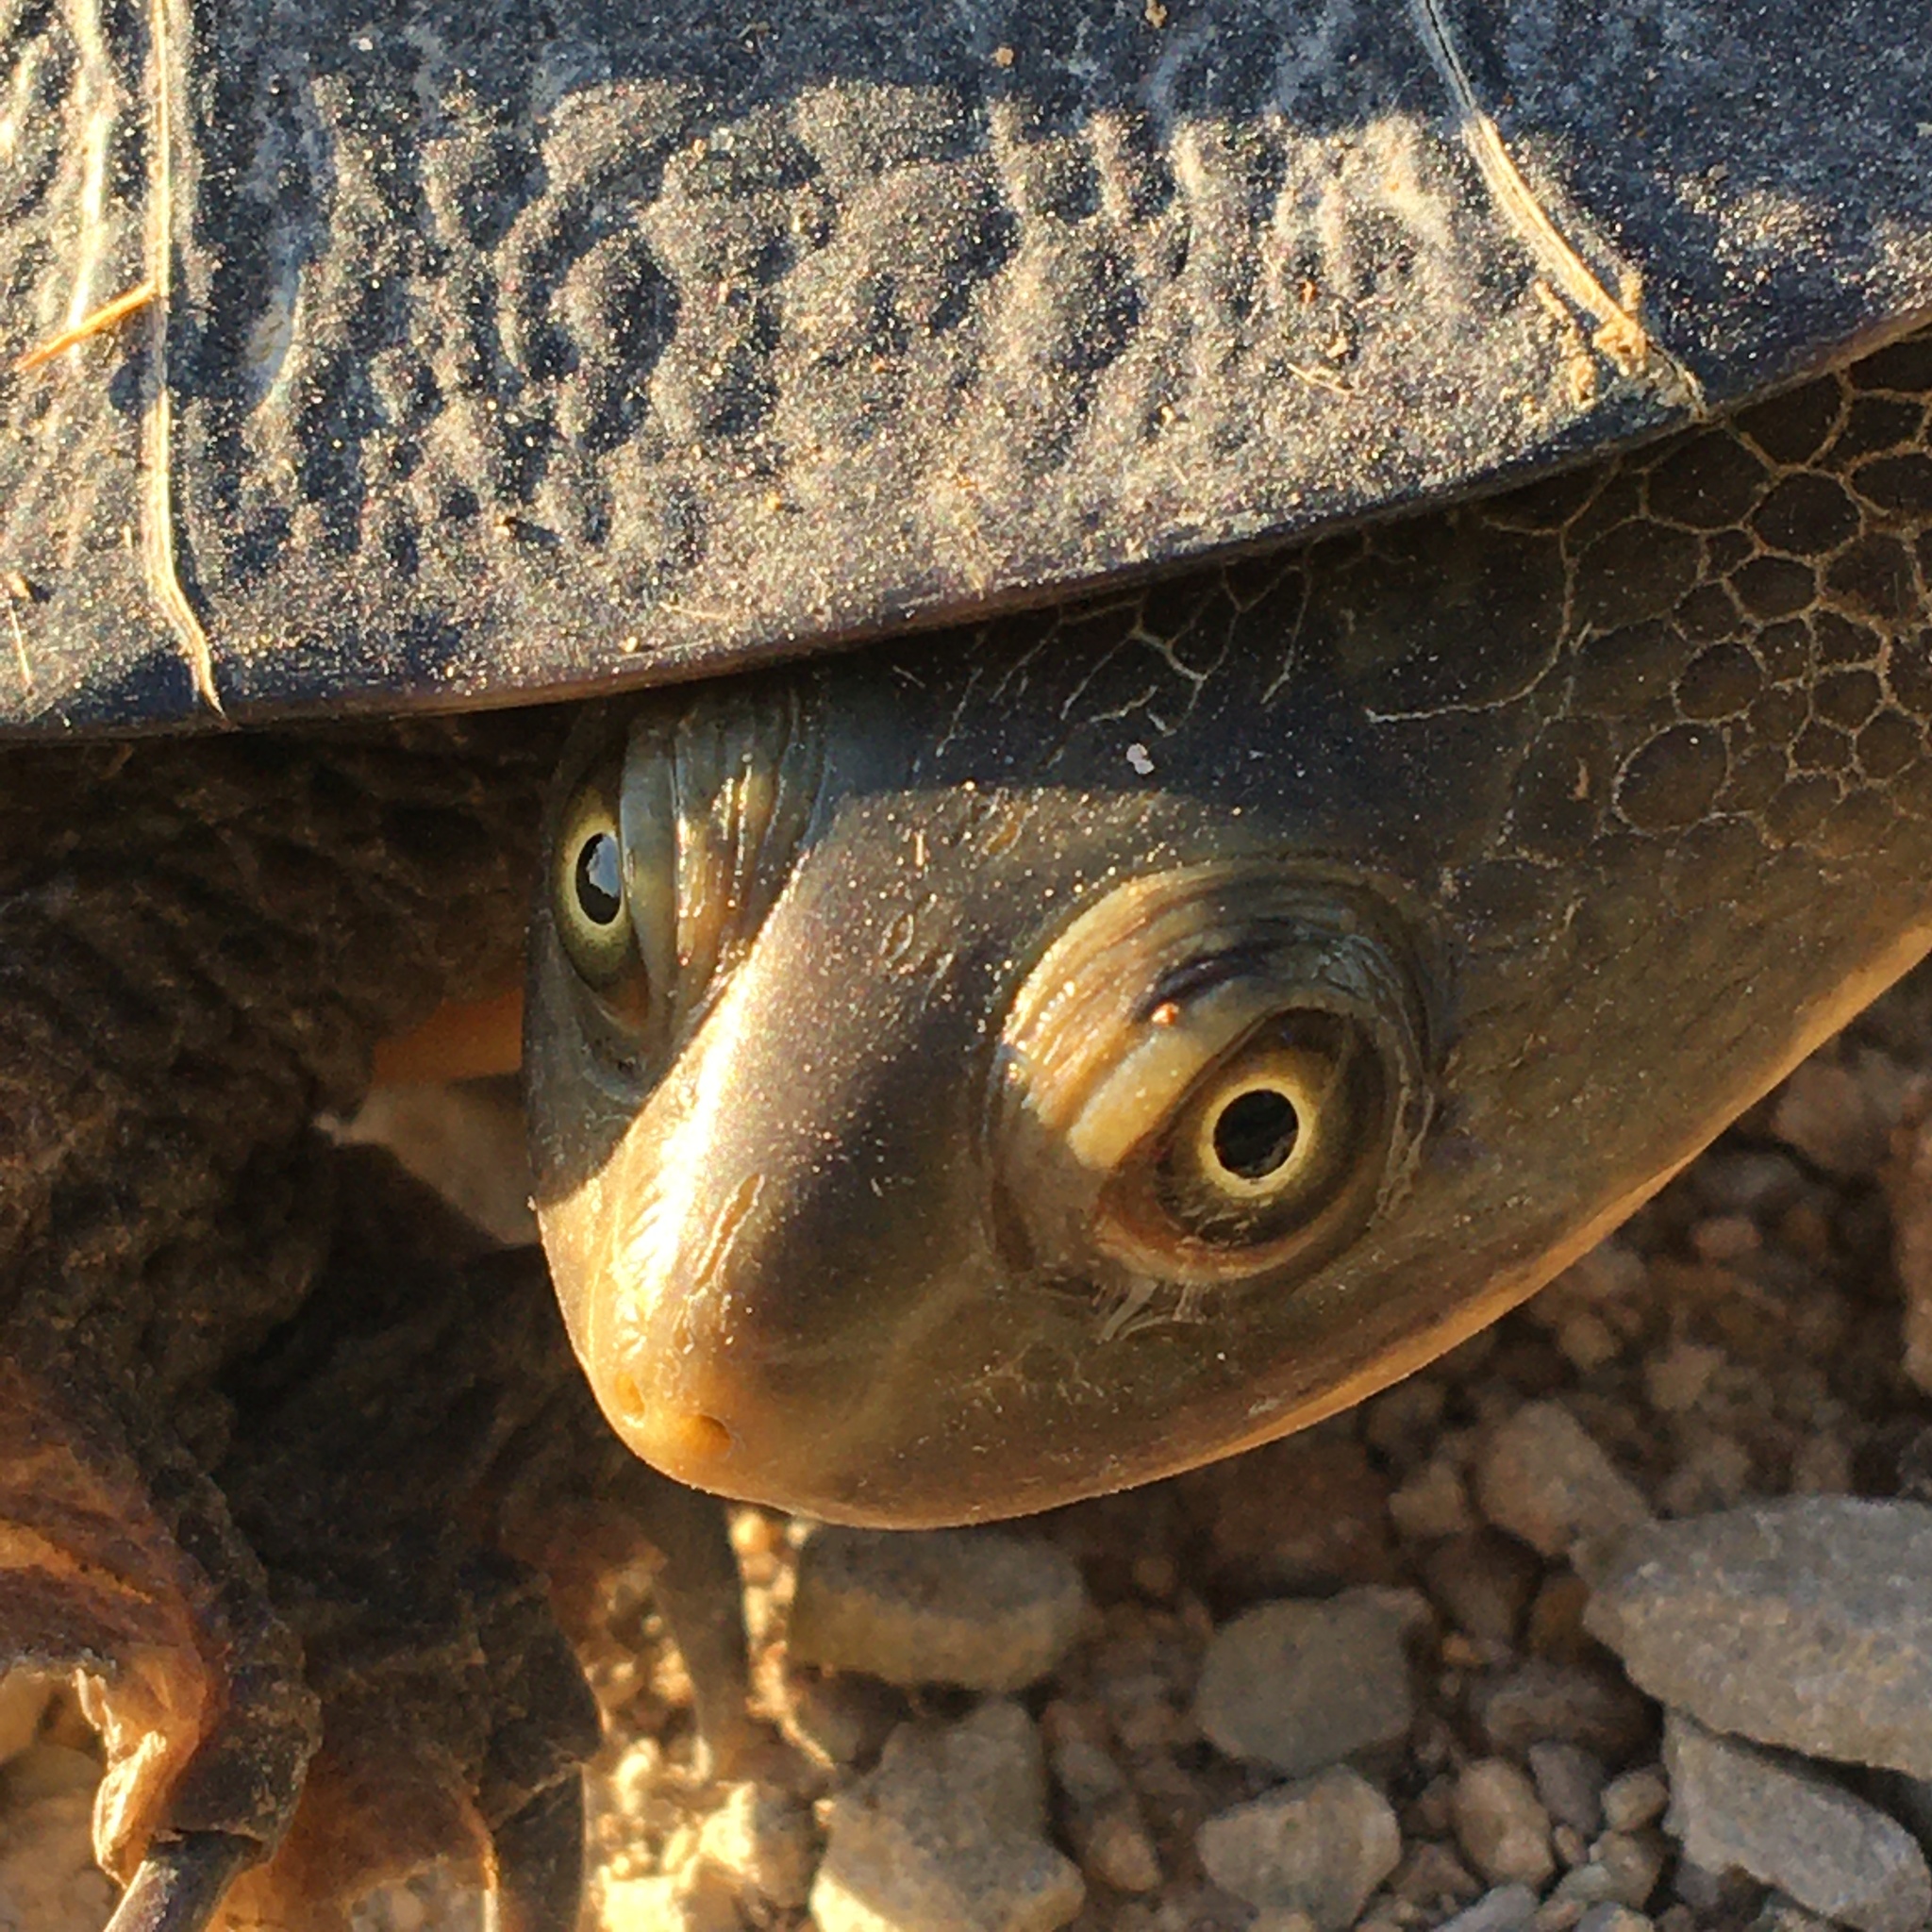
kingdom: Animalia
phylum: Chordata
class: Testudines
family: Chelidae
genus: Chelodina
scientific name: Chelodina longicollis
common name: Eastern snake-necked turtle
